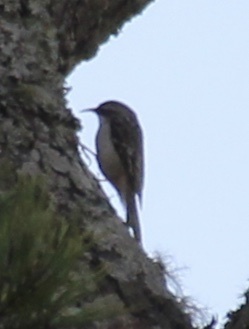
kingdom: Animalia
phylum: Chordata
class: Aves
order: Passeriformes
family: Certhiidae
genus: Certhia
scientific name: Certhia americana
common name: Brown creeper
